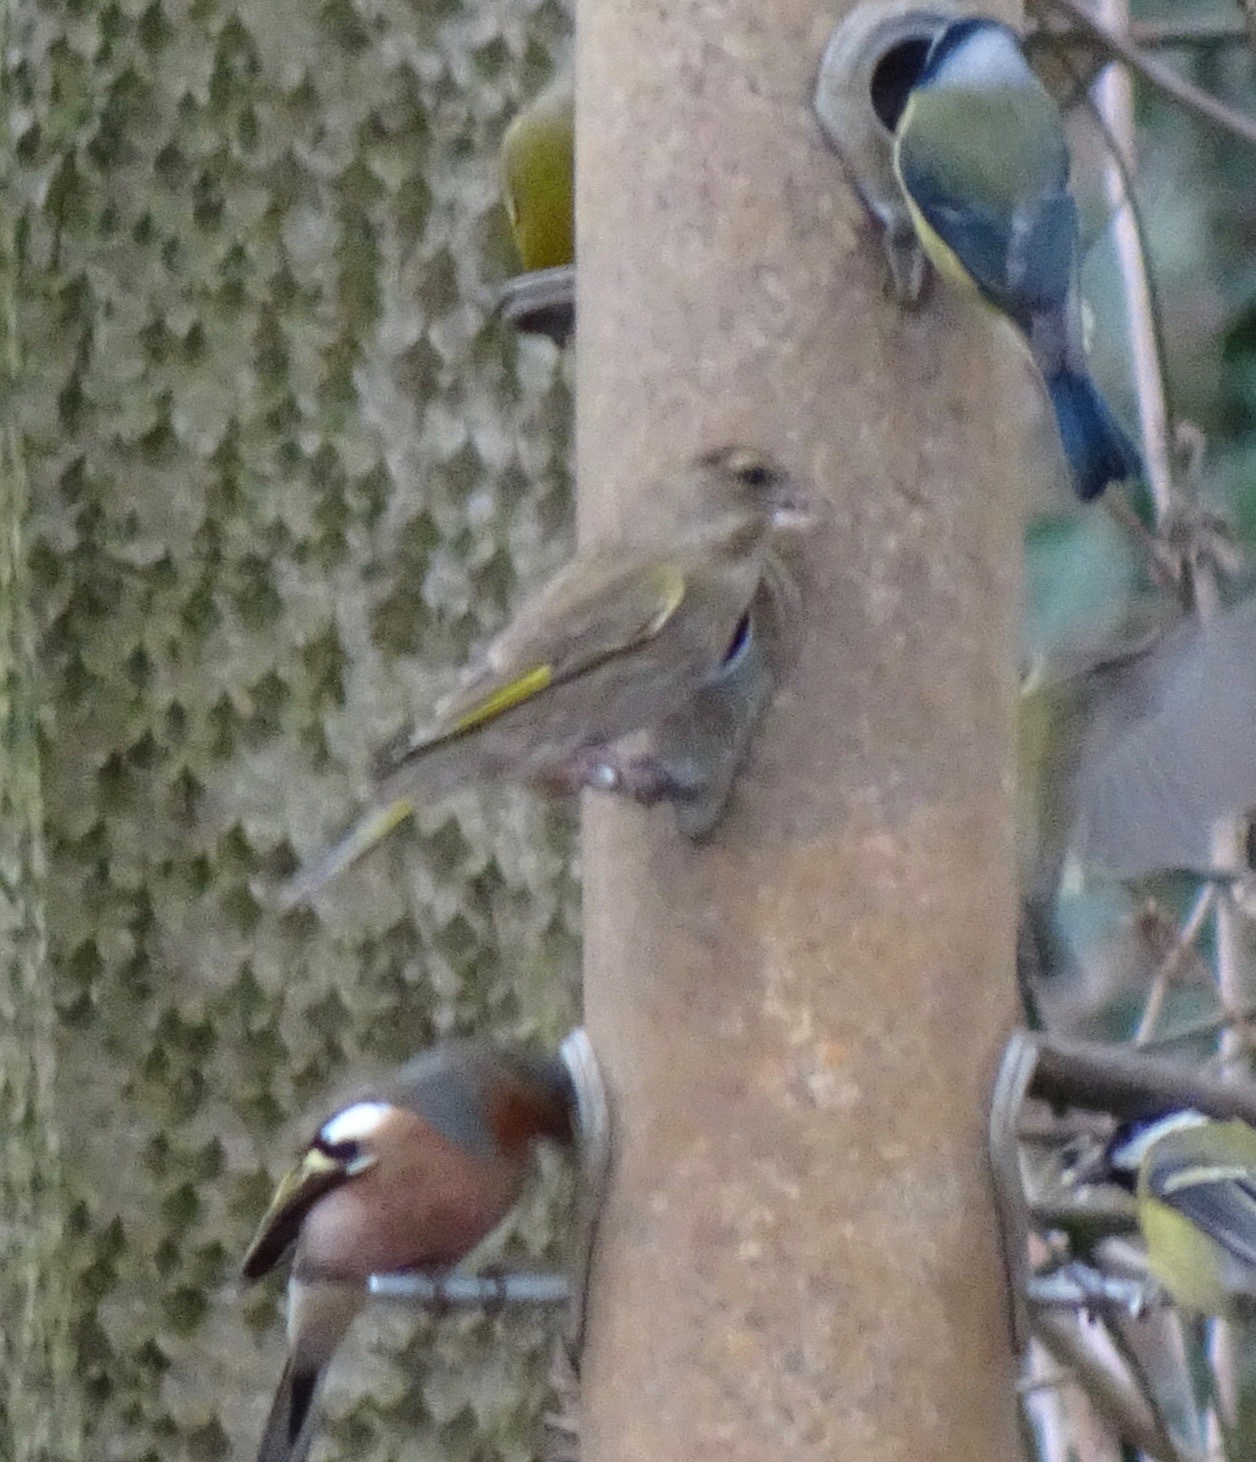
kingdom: Plantae
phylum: Tracheophyta
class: Liliopsida
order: Poales
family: Poaceae
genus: Chloris
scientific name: Chloris chloris
